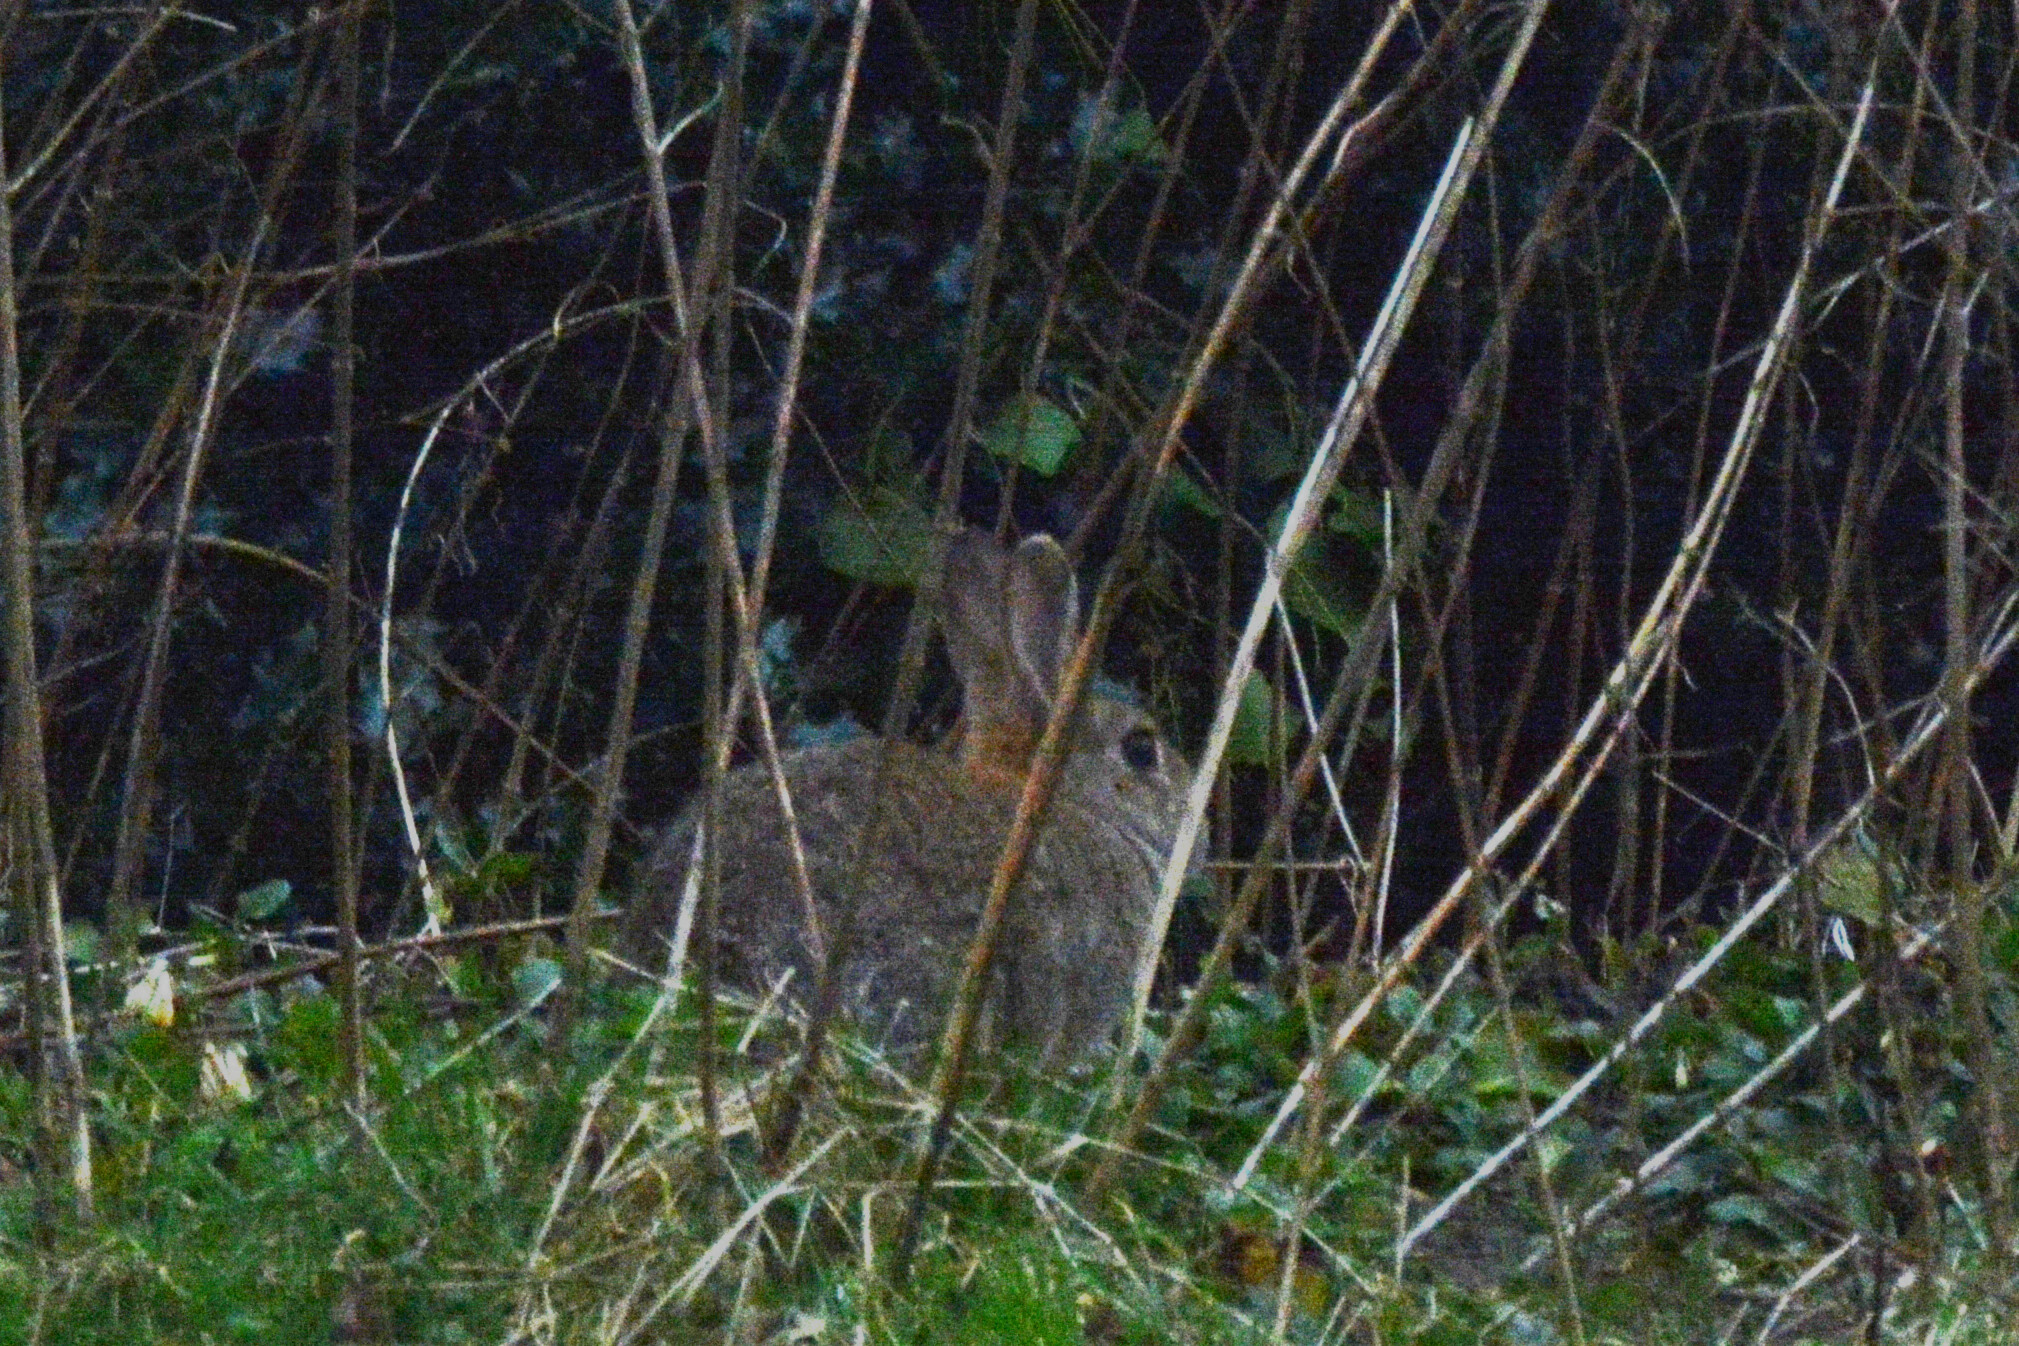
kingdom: Animalia
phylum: Chordata
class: Mammalia
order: Lagomorpha
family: Leporidae
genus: Oryctolagus
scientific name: Oryctolagus cuniculus
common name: European rabbit
